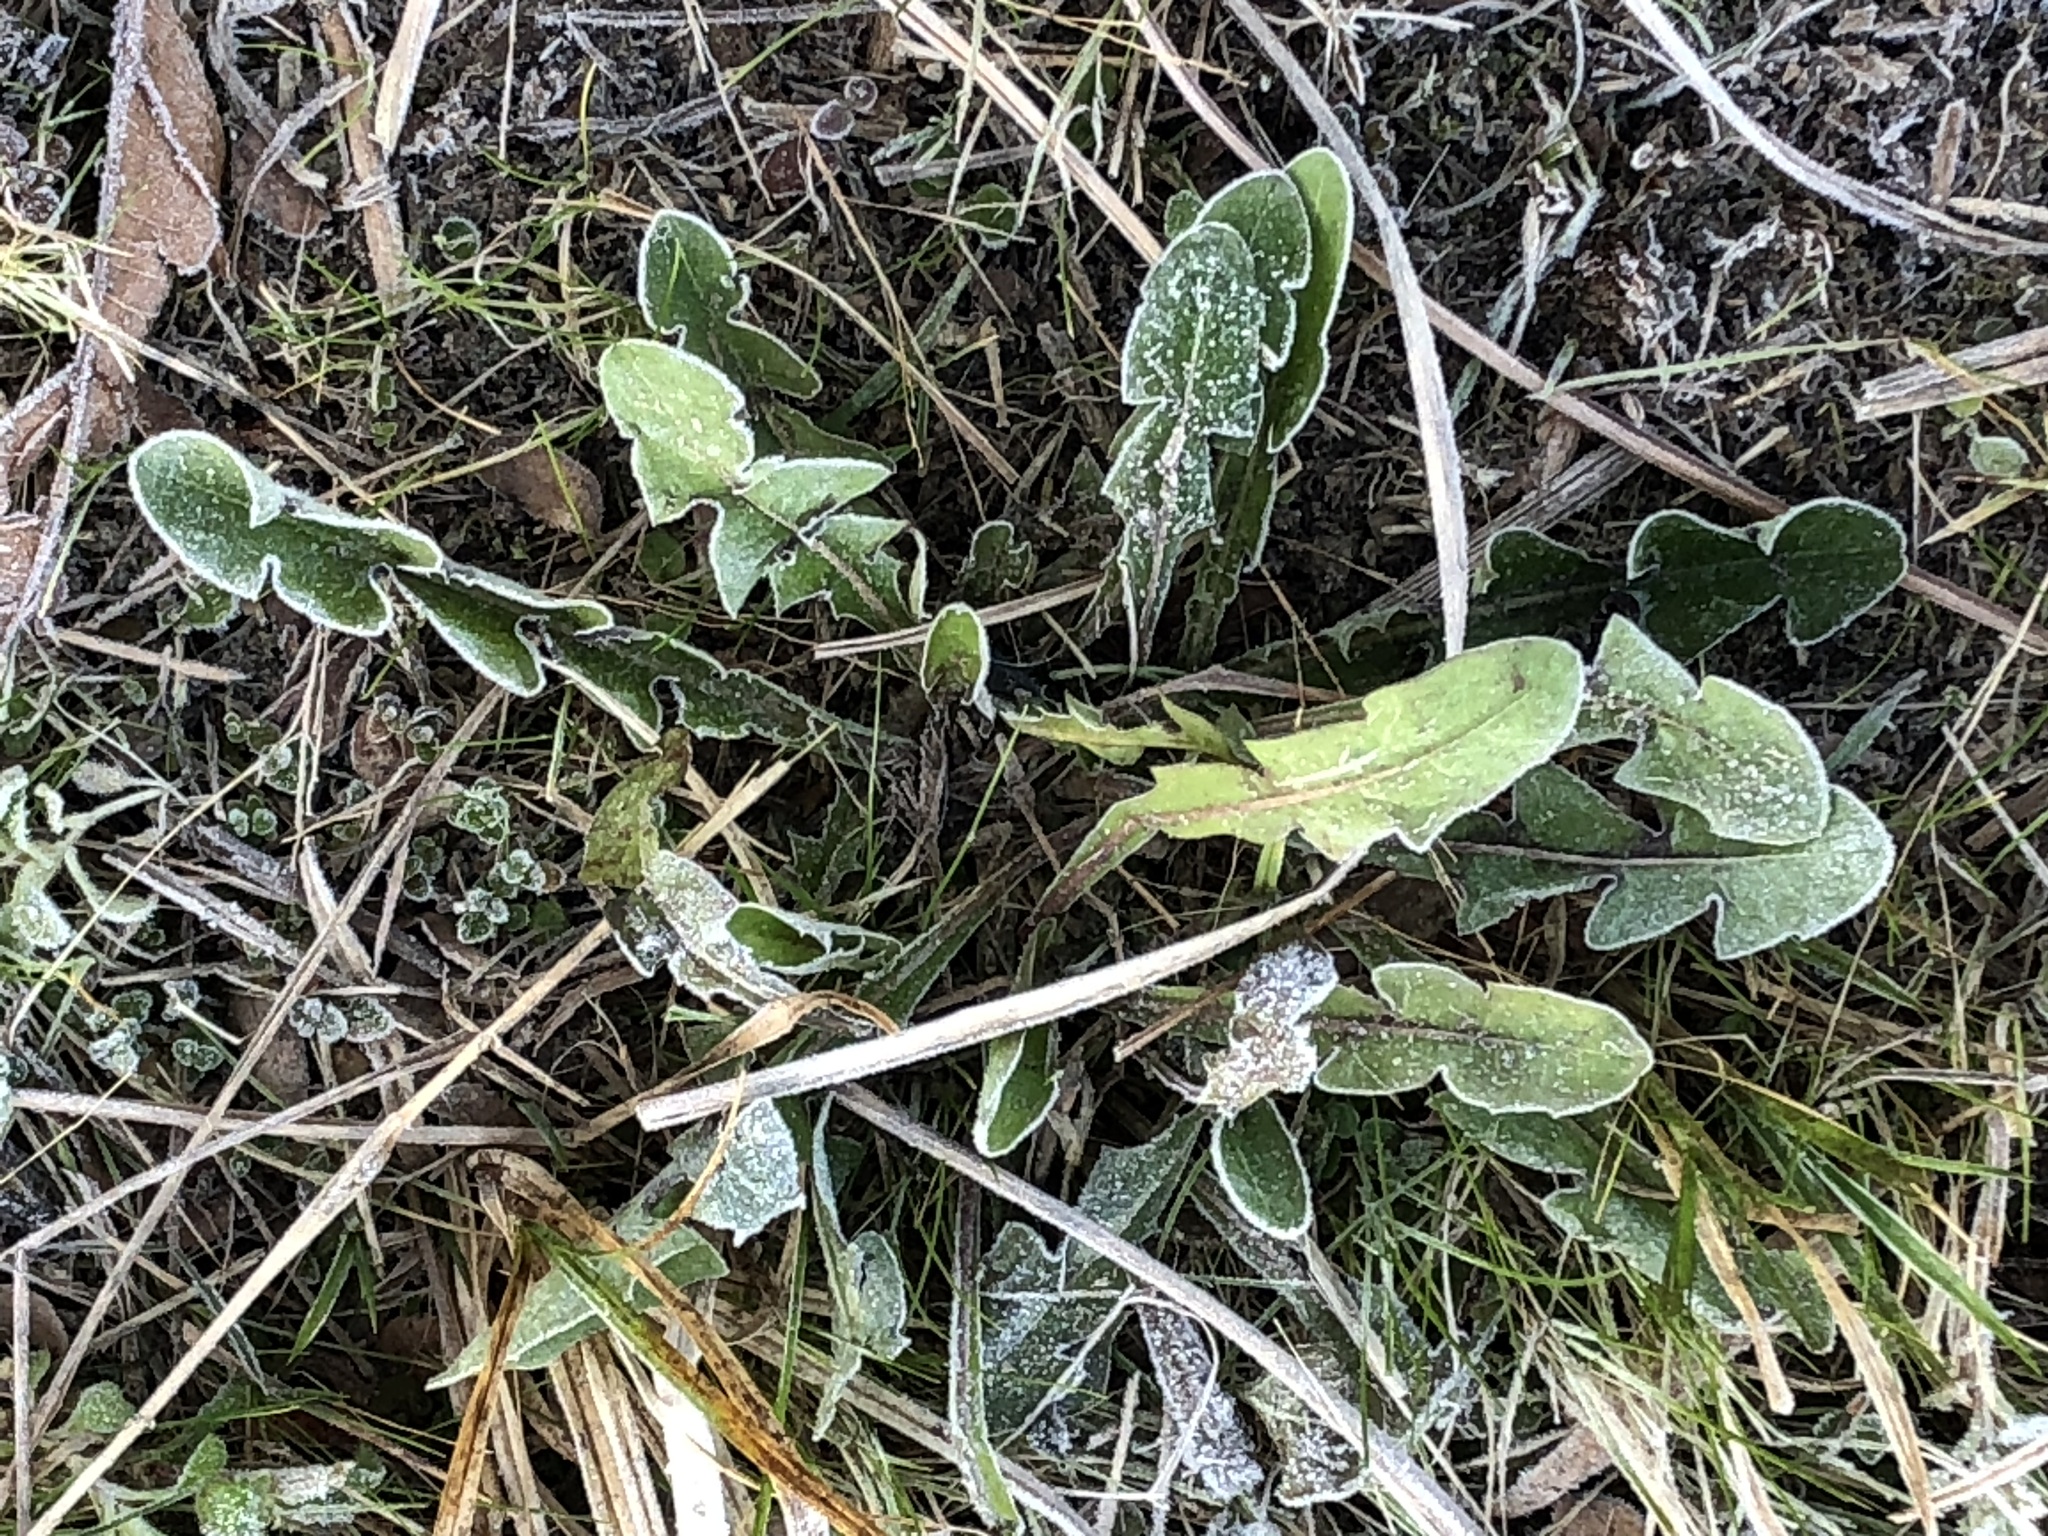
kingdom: Plantae
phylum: Tracheophyta
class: Magnoliopsida
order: Asterales
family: Asteraceae
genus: Taraxacum
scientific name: Taraxacum officinale
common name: Common dandelion
